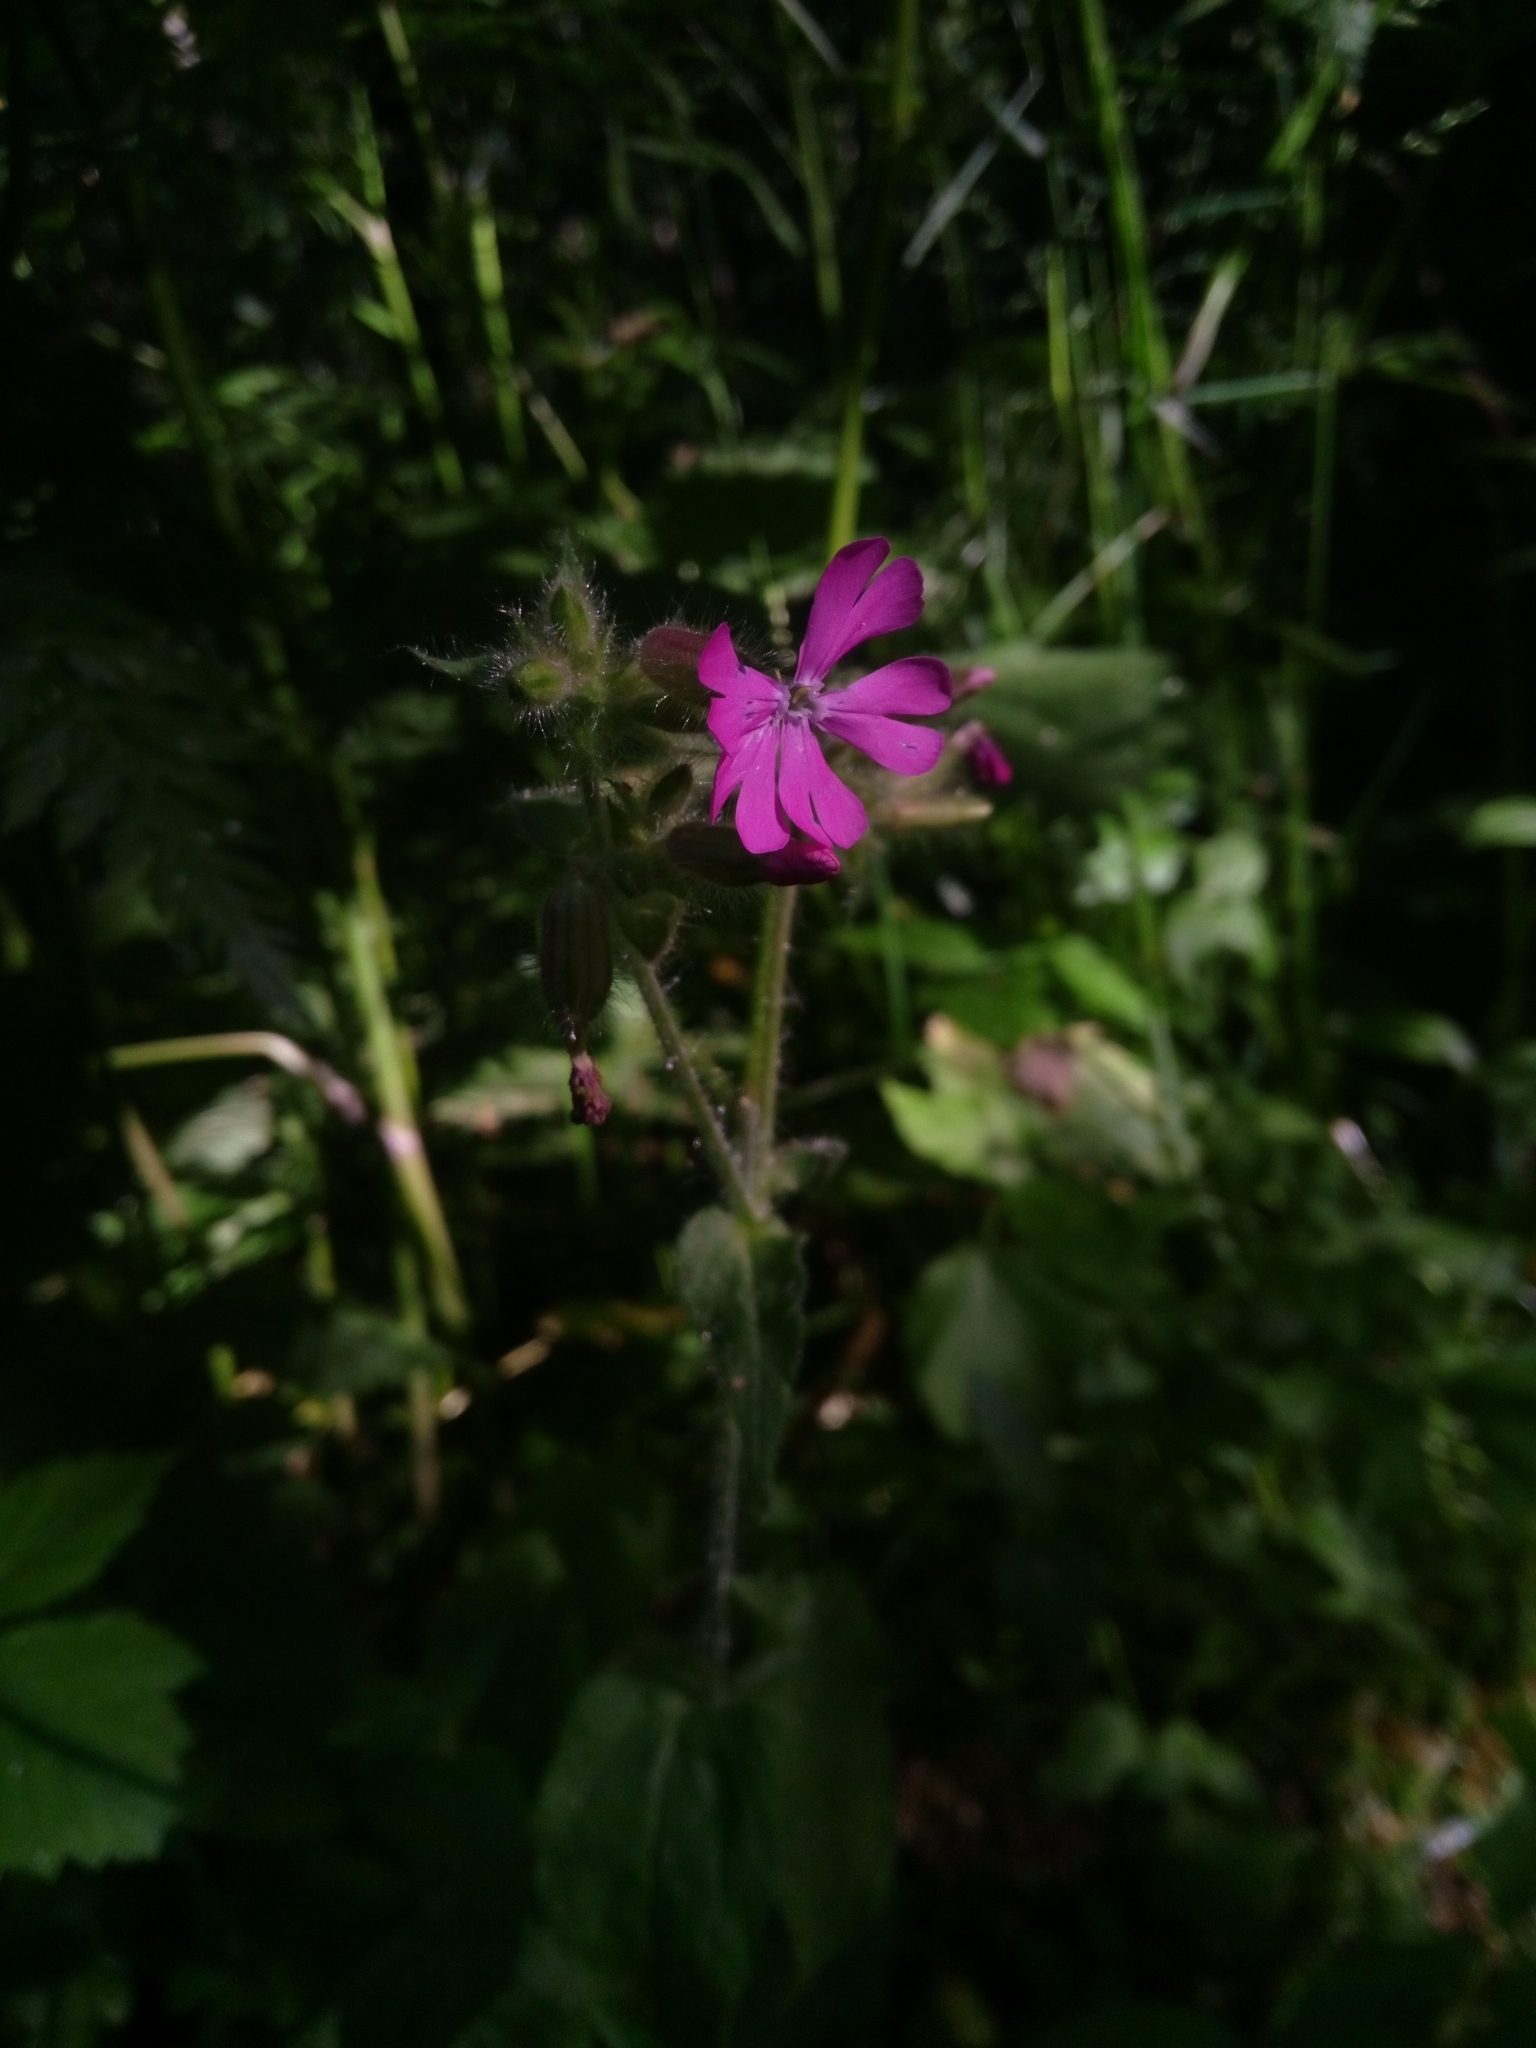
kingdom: Plantae
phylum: Tracheophyta
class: Magnoliopsida
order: Caryophyllales
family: Caryophyllaceae
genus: Silene
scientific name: Silene dioica
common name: Red campion
